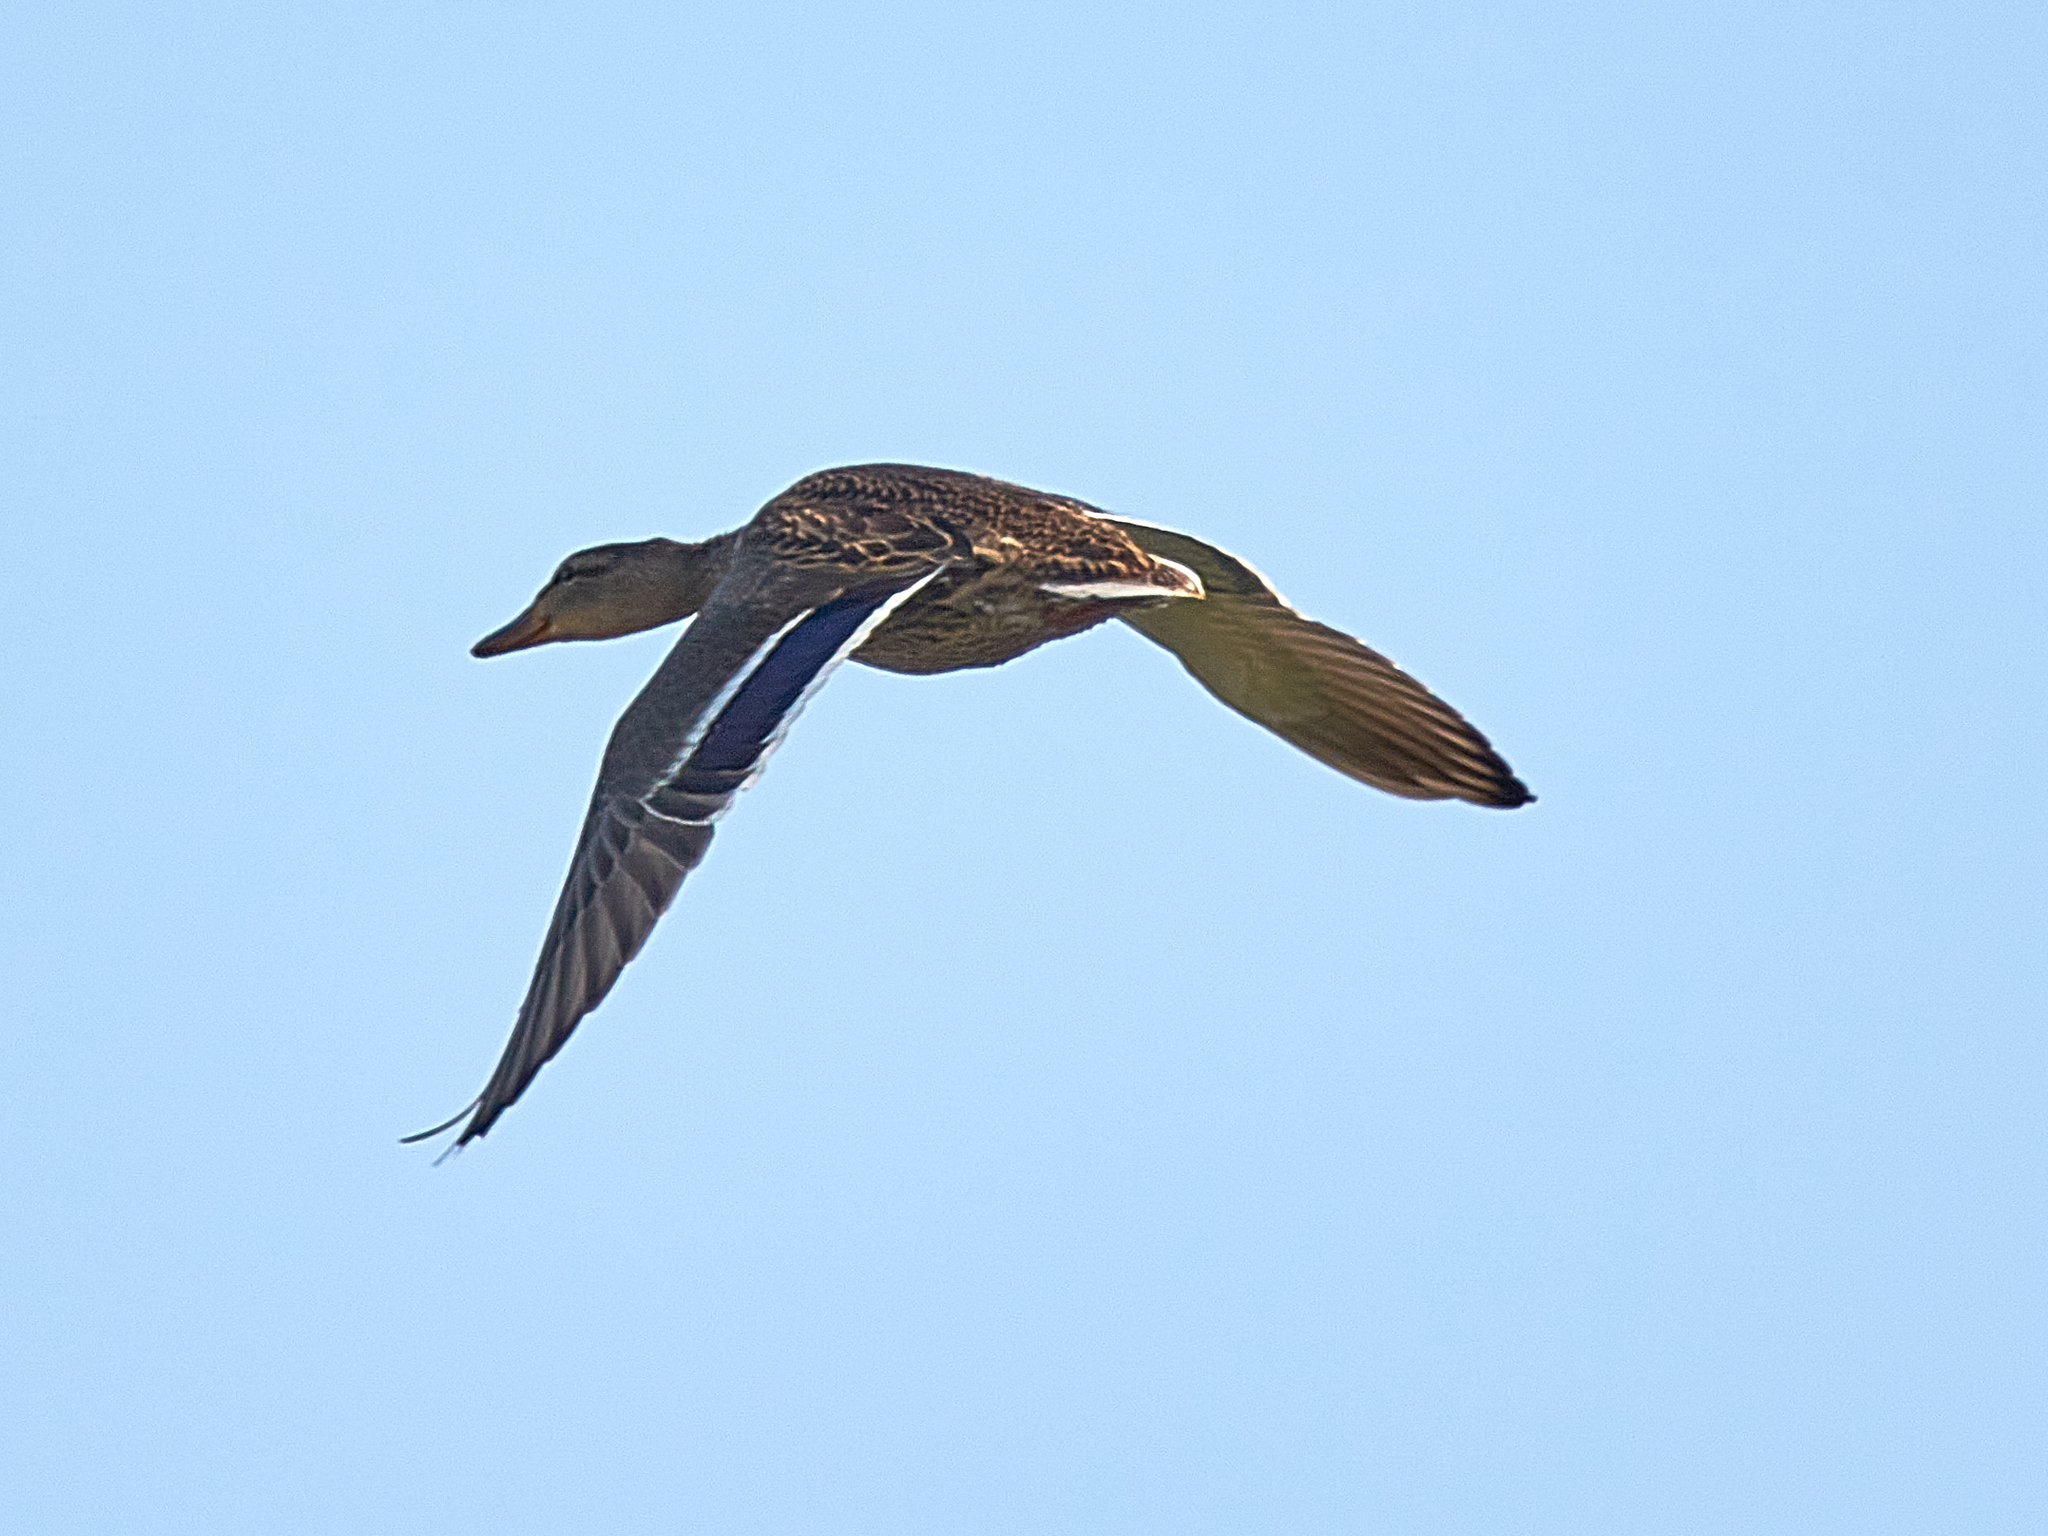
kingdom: Animalia
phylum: Chordata
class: Aves
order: Anseriformes
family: Anatidae
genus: Anas
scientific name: Anas platyrhynchos
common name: Mallard
